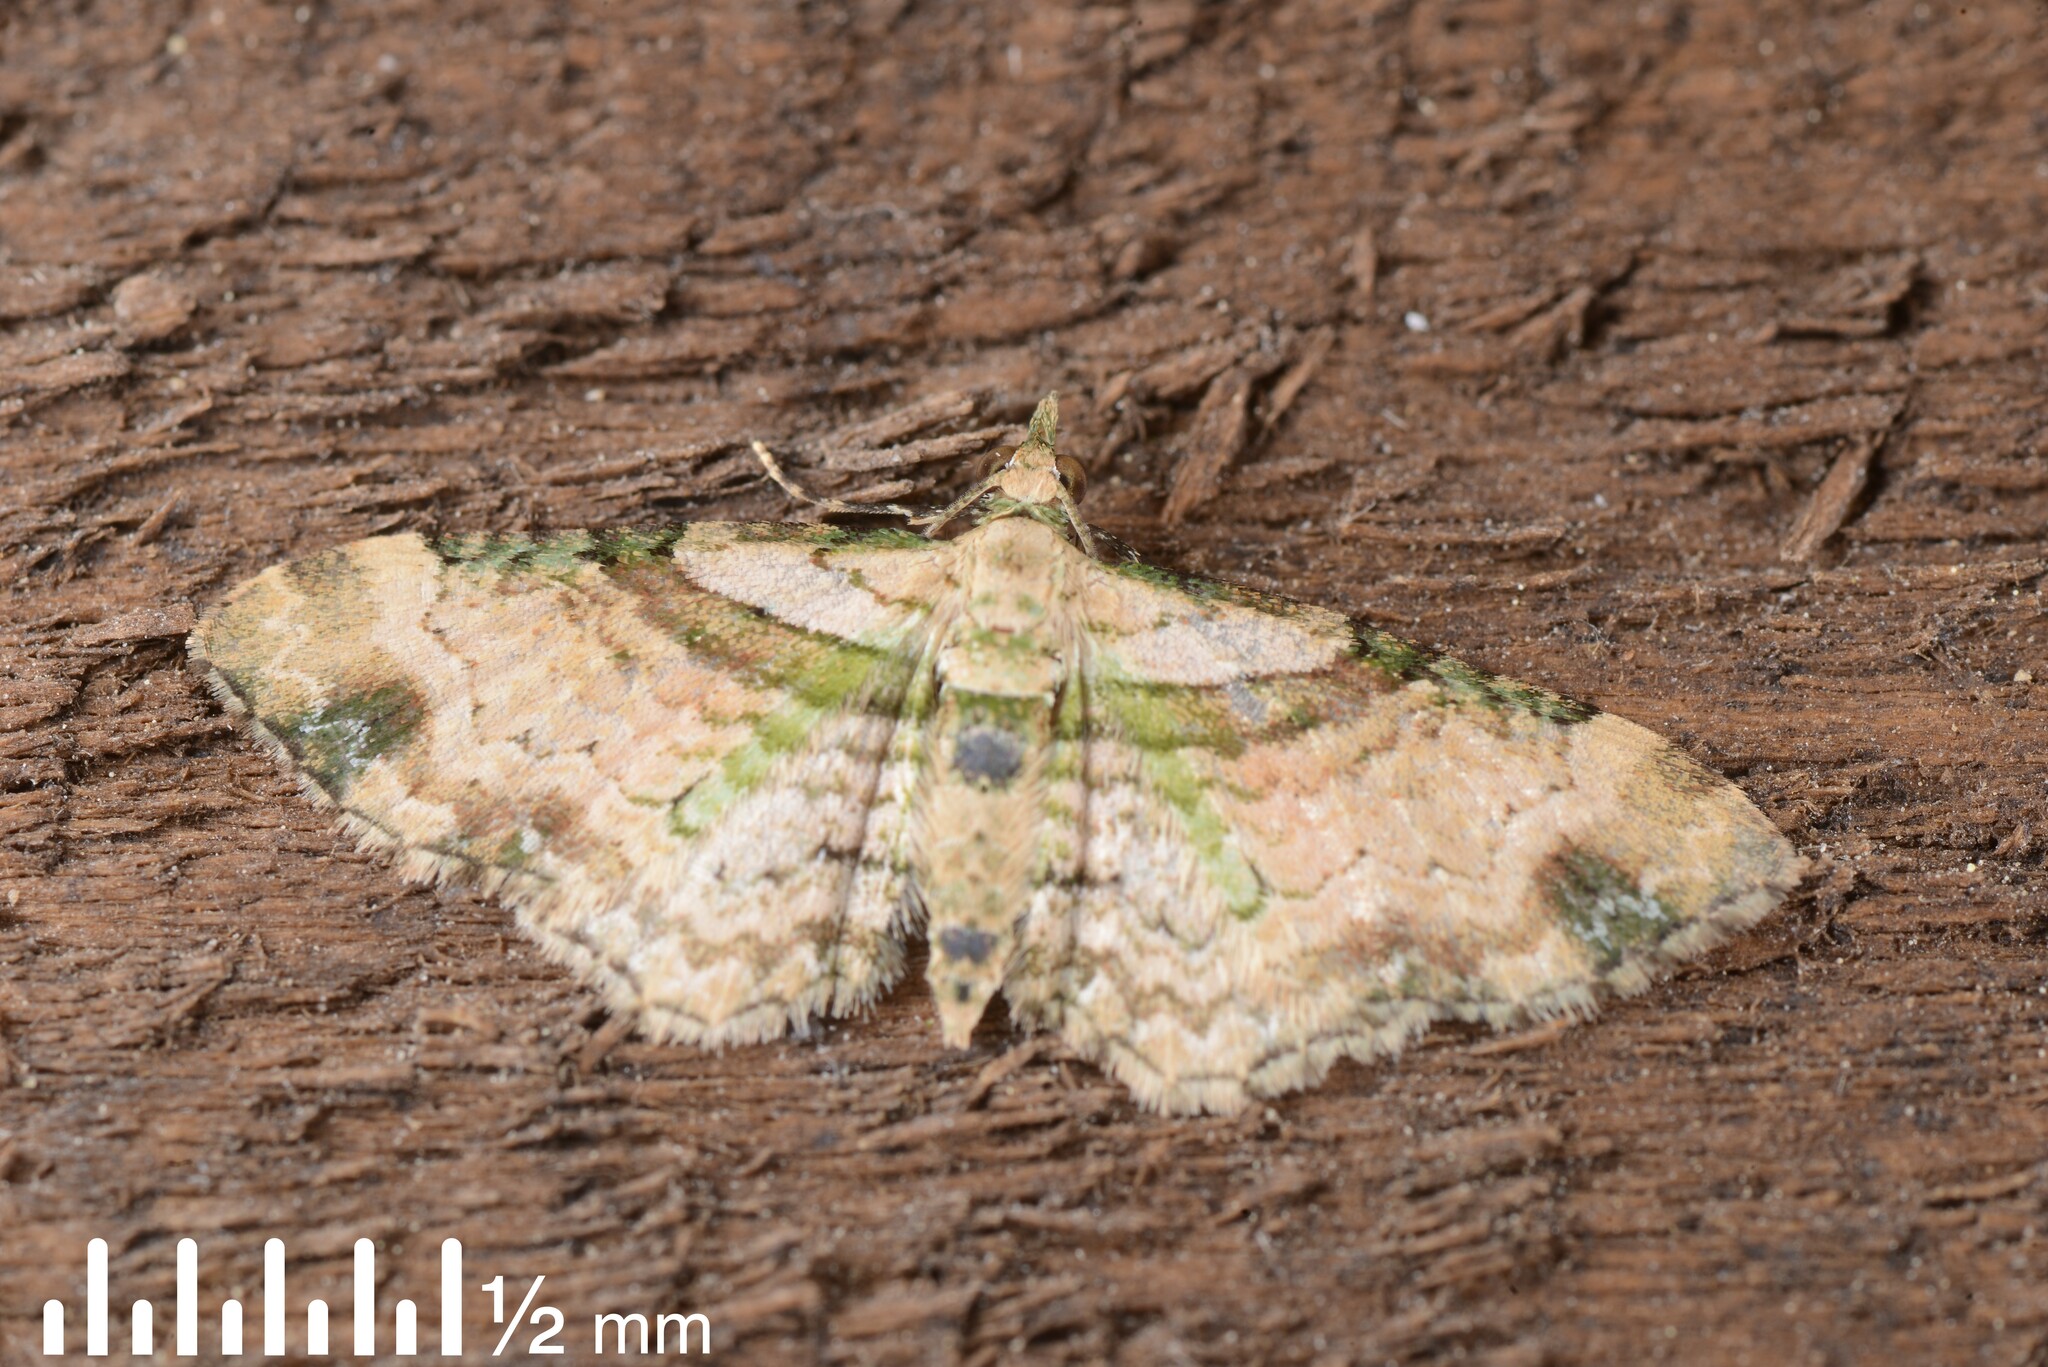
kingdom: Animalia
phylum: Arthropoda
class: Insecta
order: Lepidoptera
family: Geometridae
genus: Chloroclystis
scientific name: Chloroclystis
